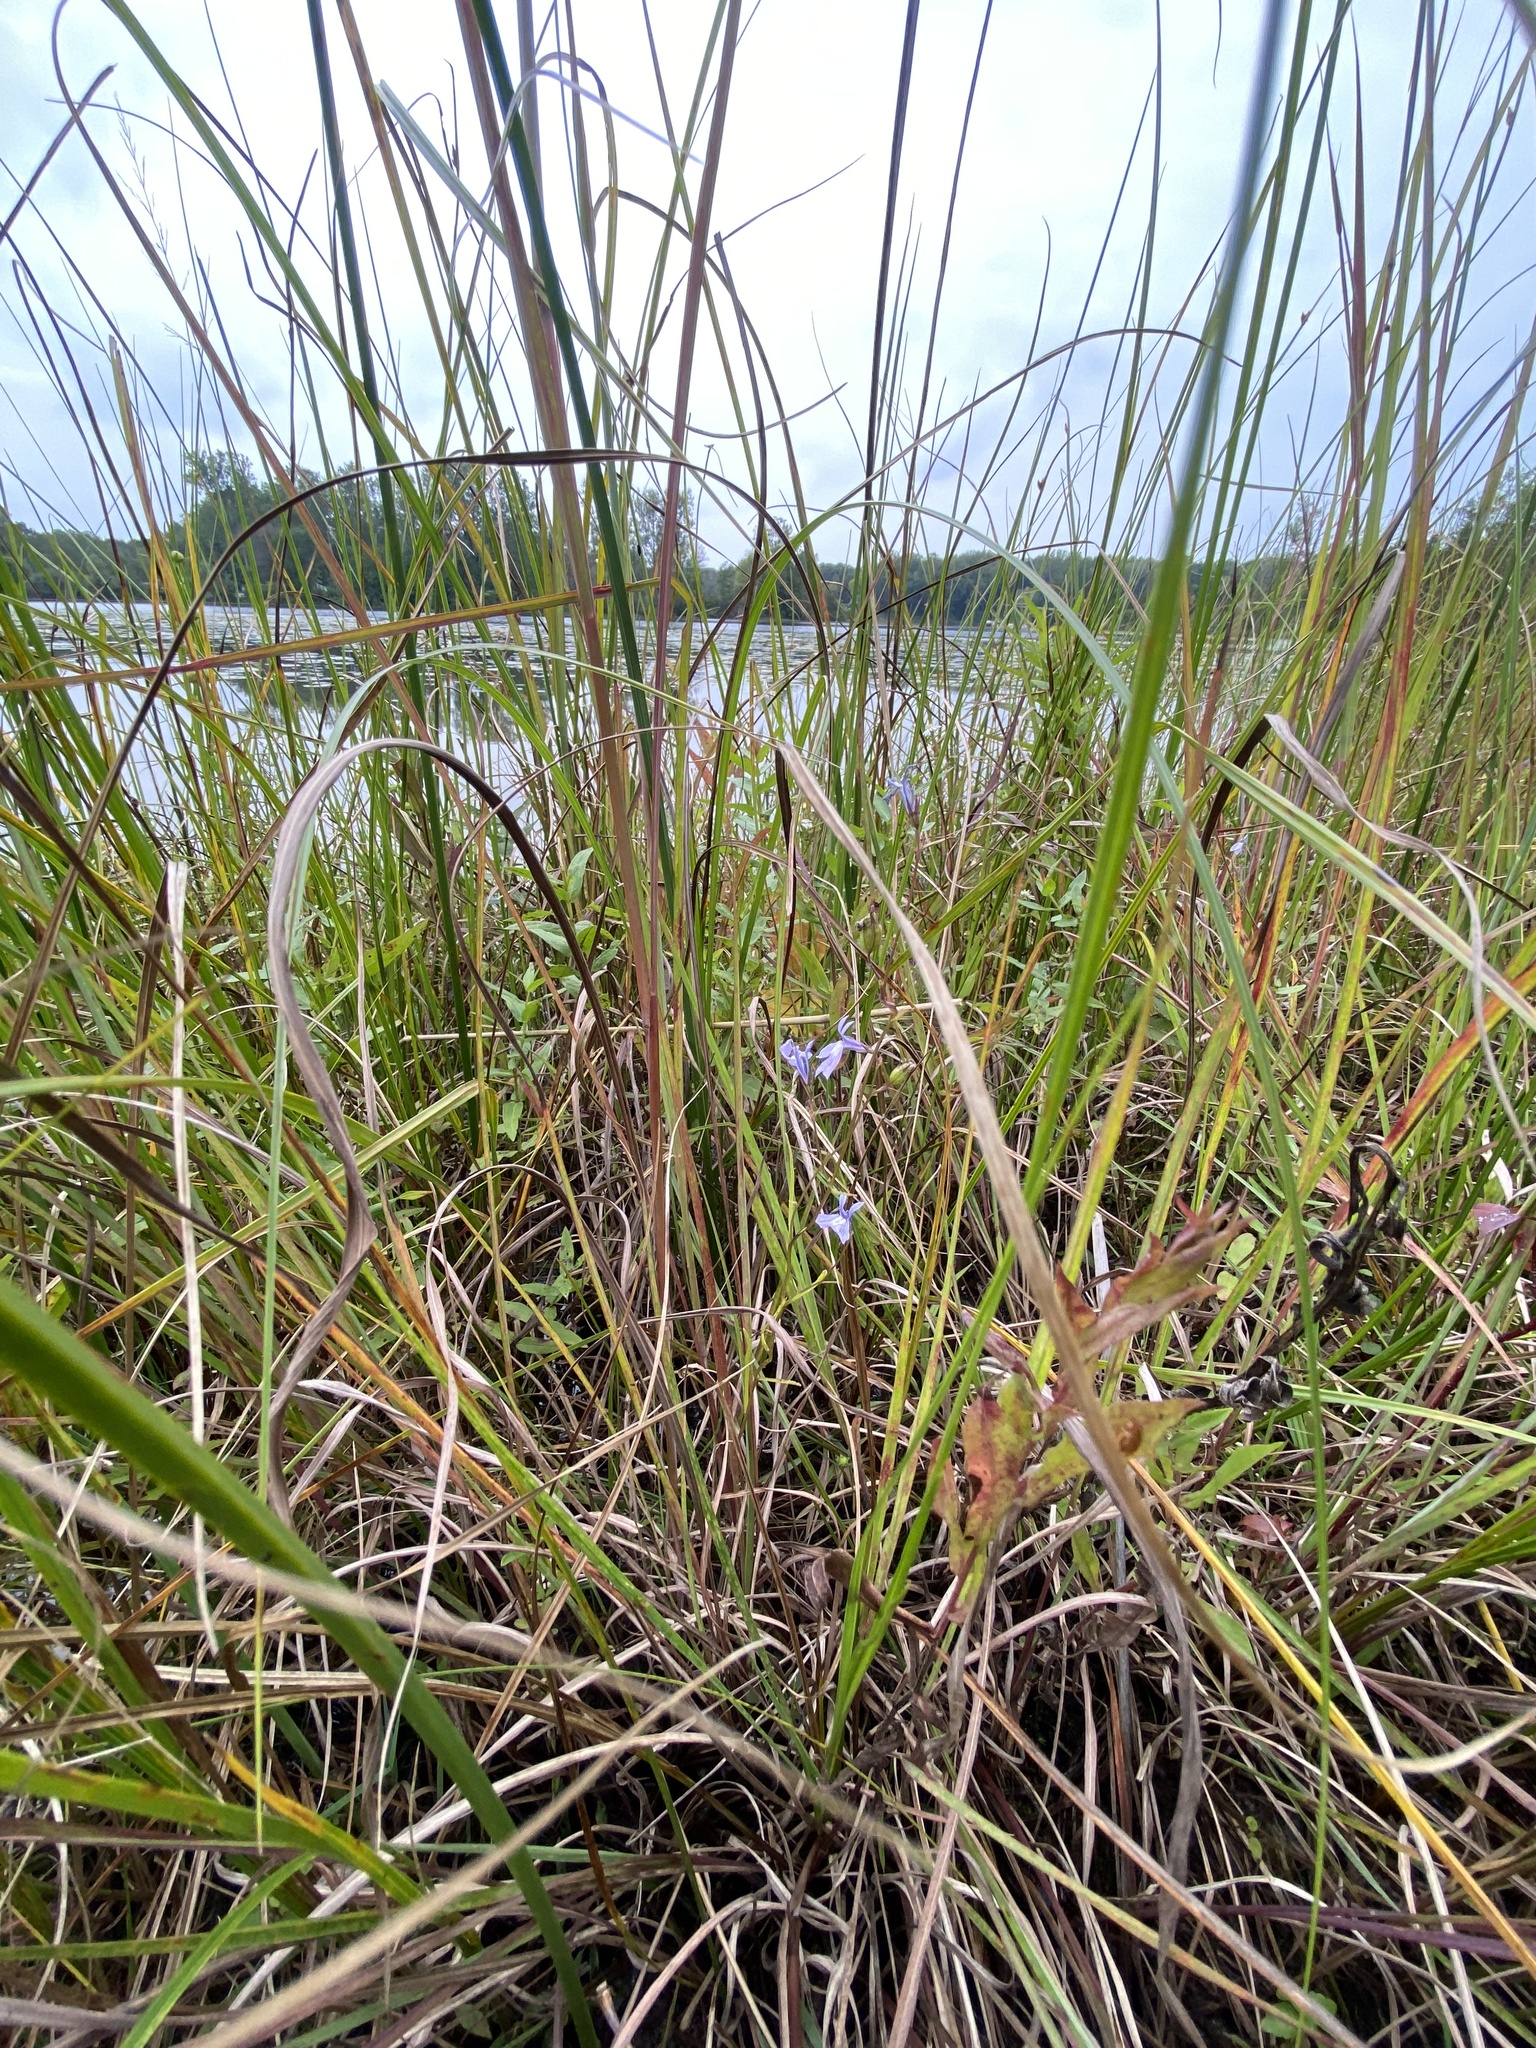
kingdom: Plantae
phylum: Tracheophyta
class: Magnoliopsida
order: Asterales
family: Campanulaceae
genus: Lobelia
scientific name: Lobelia kalmii
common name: Kalm's lobelia
